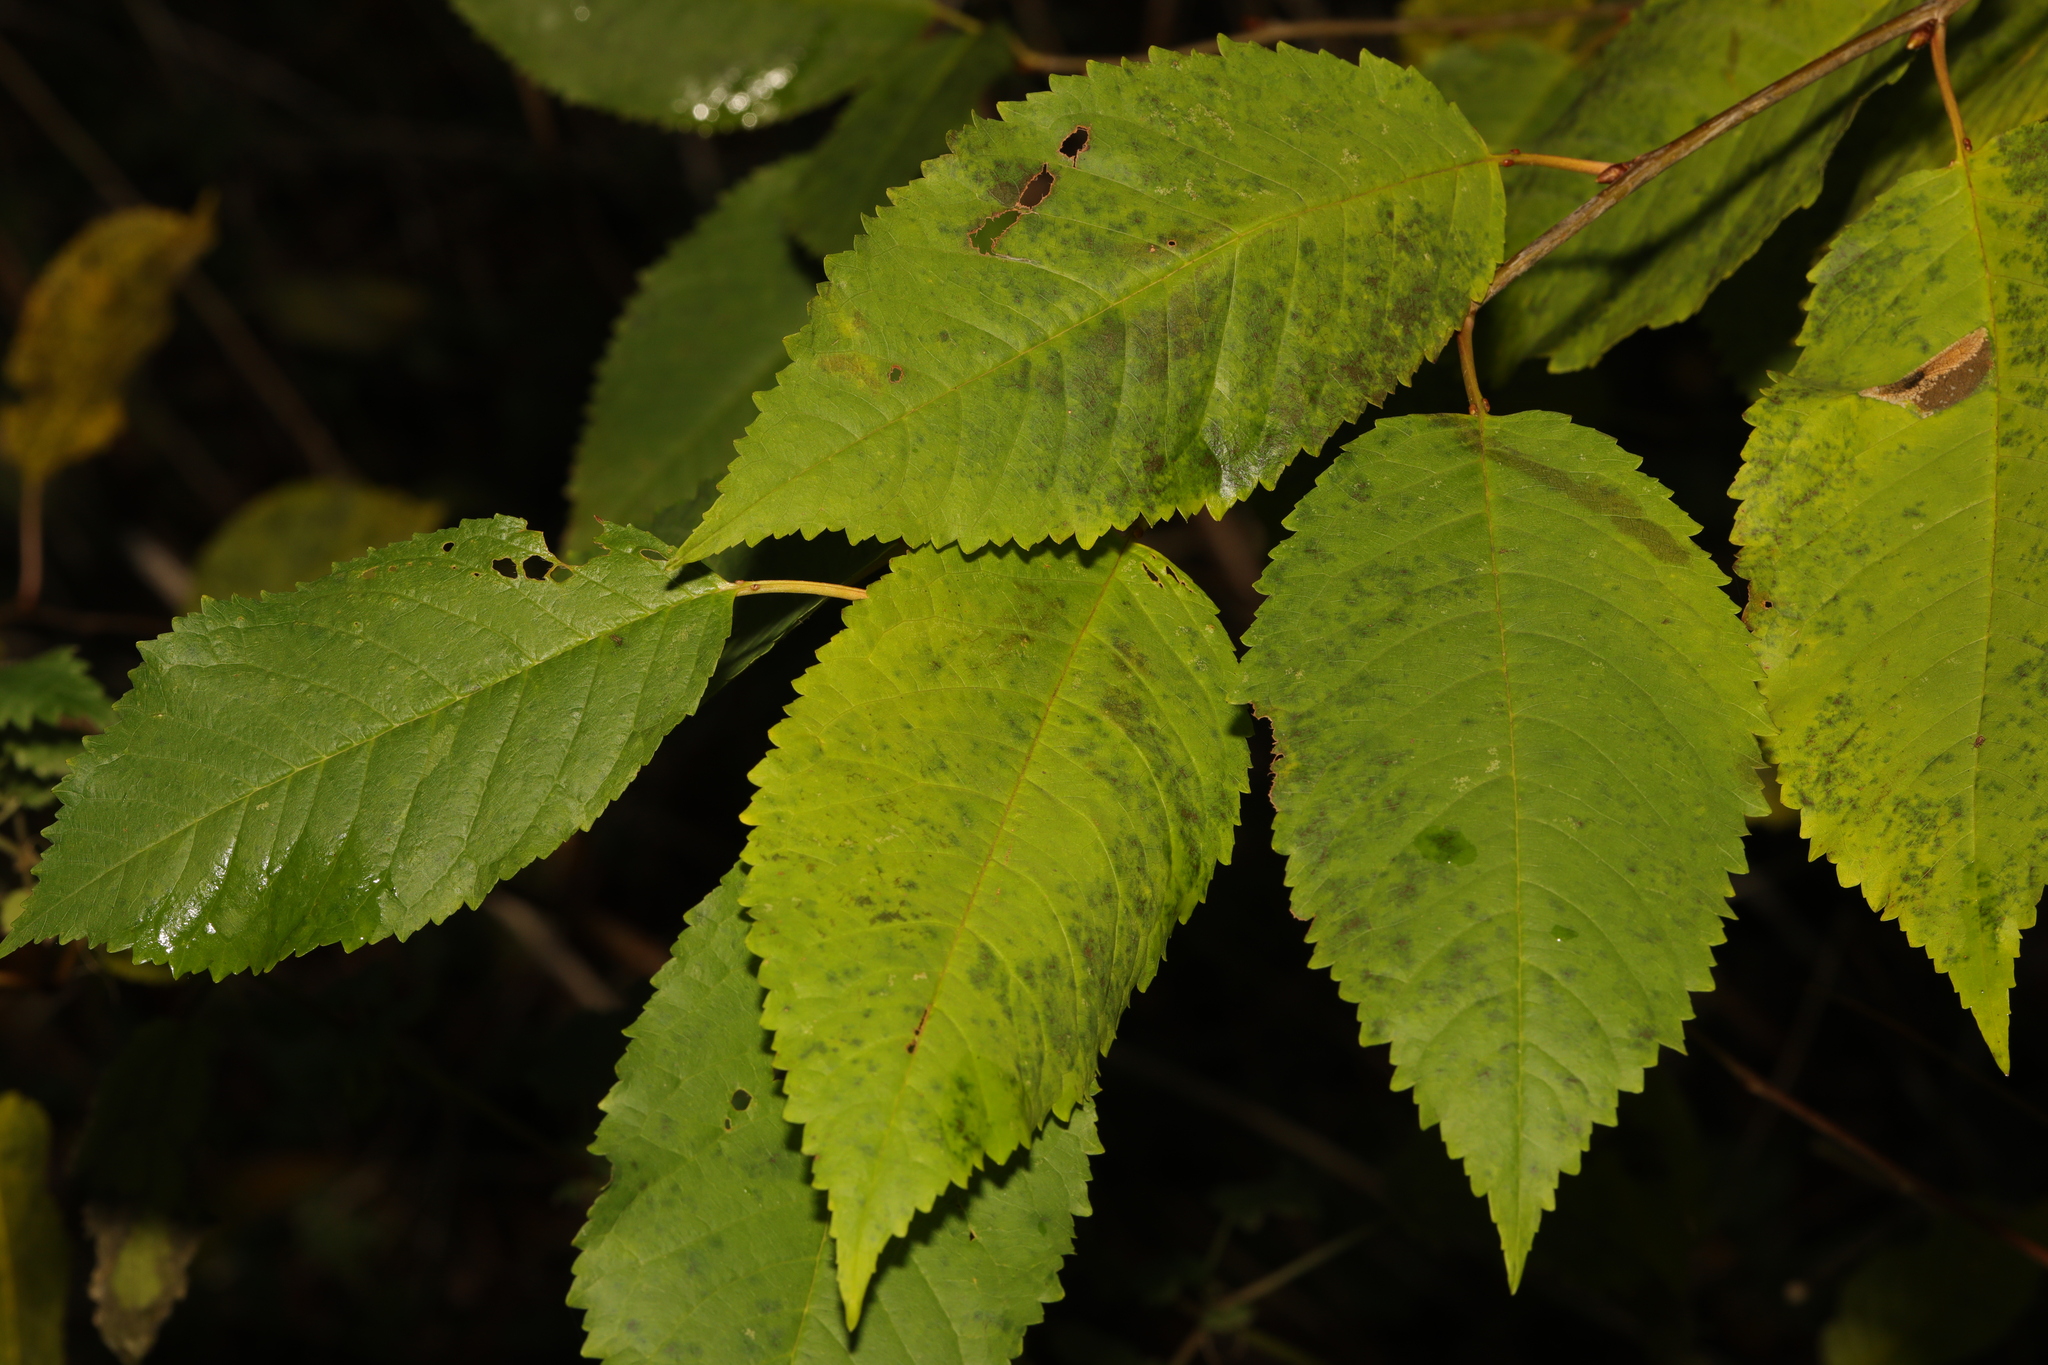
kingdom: Plantae
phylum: Tracheophyta
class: Magnoliopsida
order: Rosales
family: Rosaceae
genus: Prunus
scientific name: Prunus avium
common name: Sweet cherry
